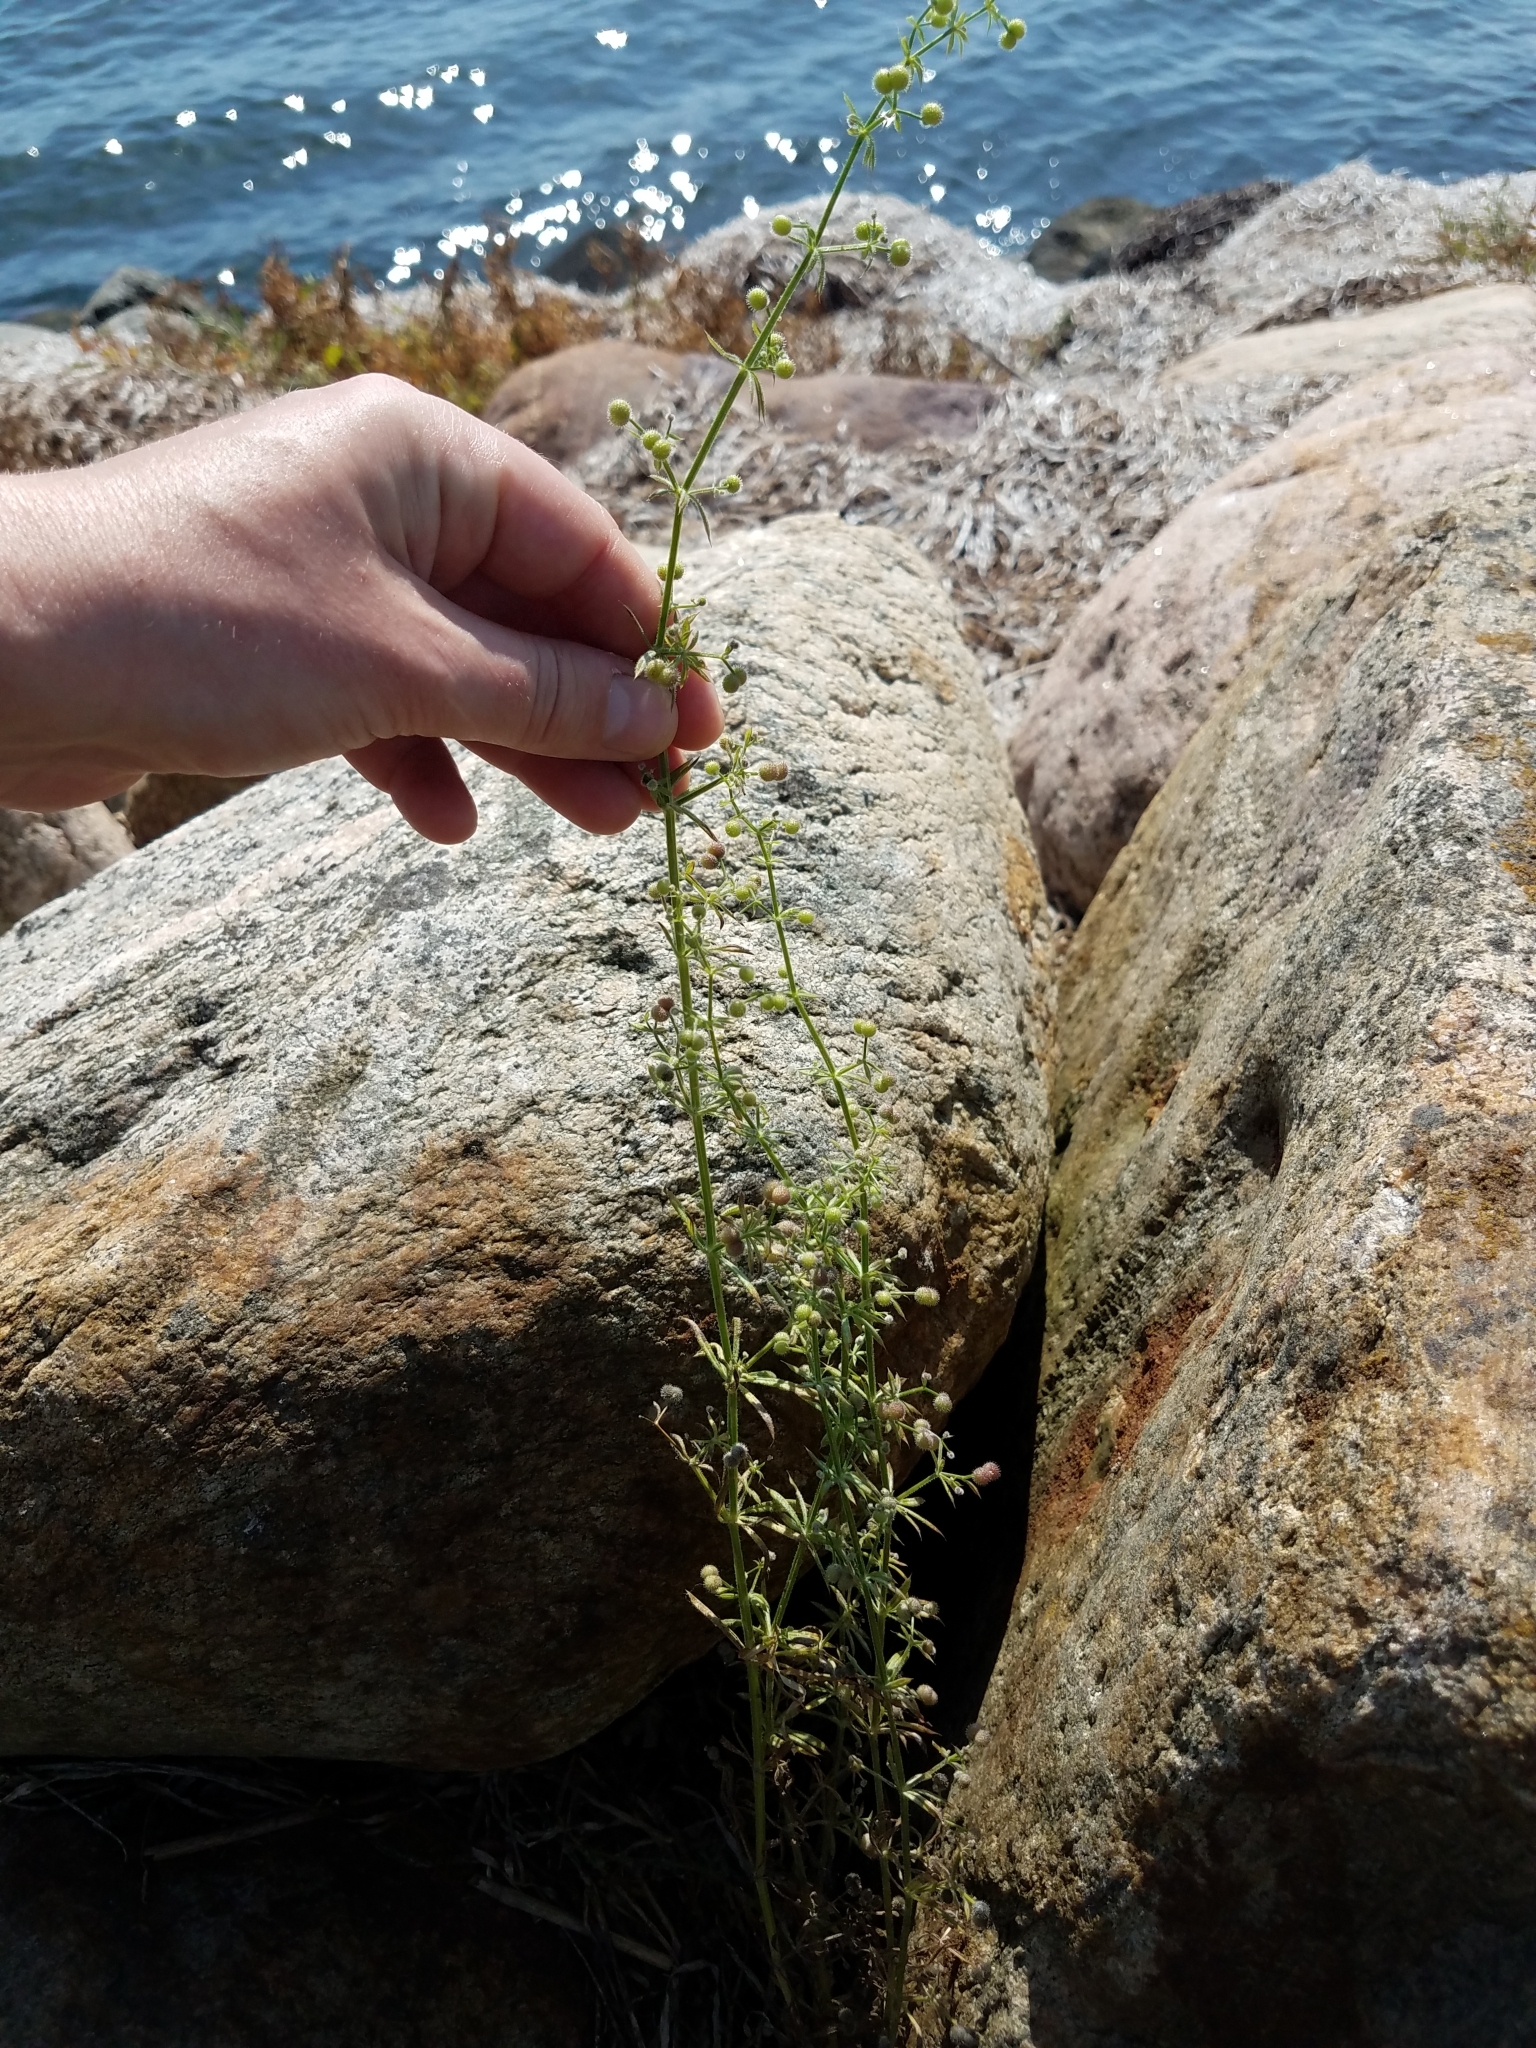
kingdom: Plantae
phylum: Tracheophyta
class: Magnoliopsida
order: Gentianales
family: Rubiaceae
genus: Galium
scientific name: Galium aparine
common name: Cleavers
